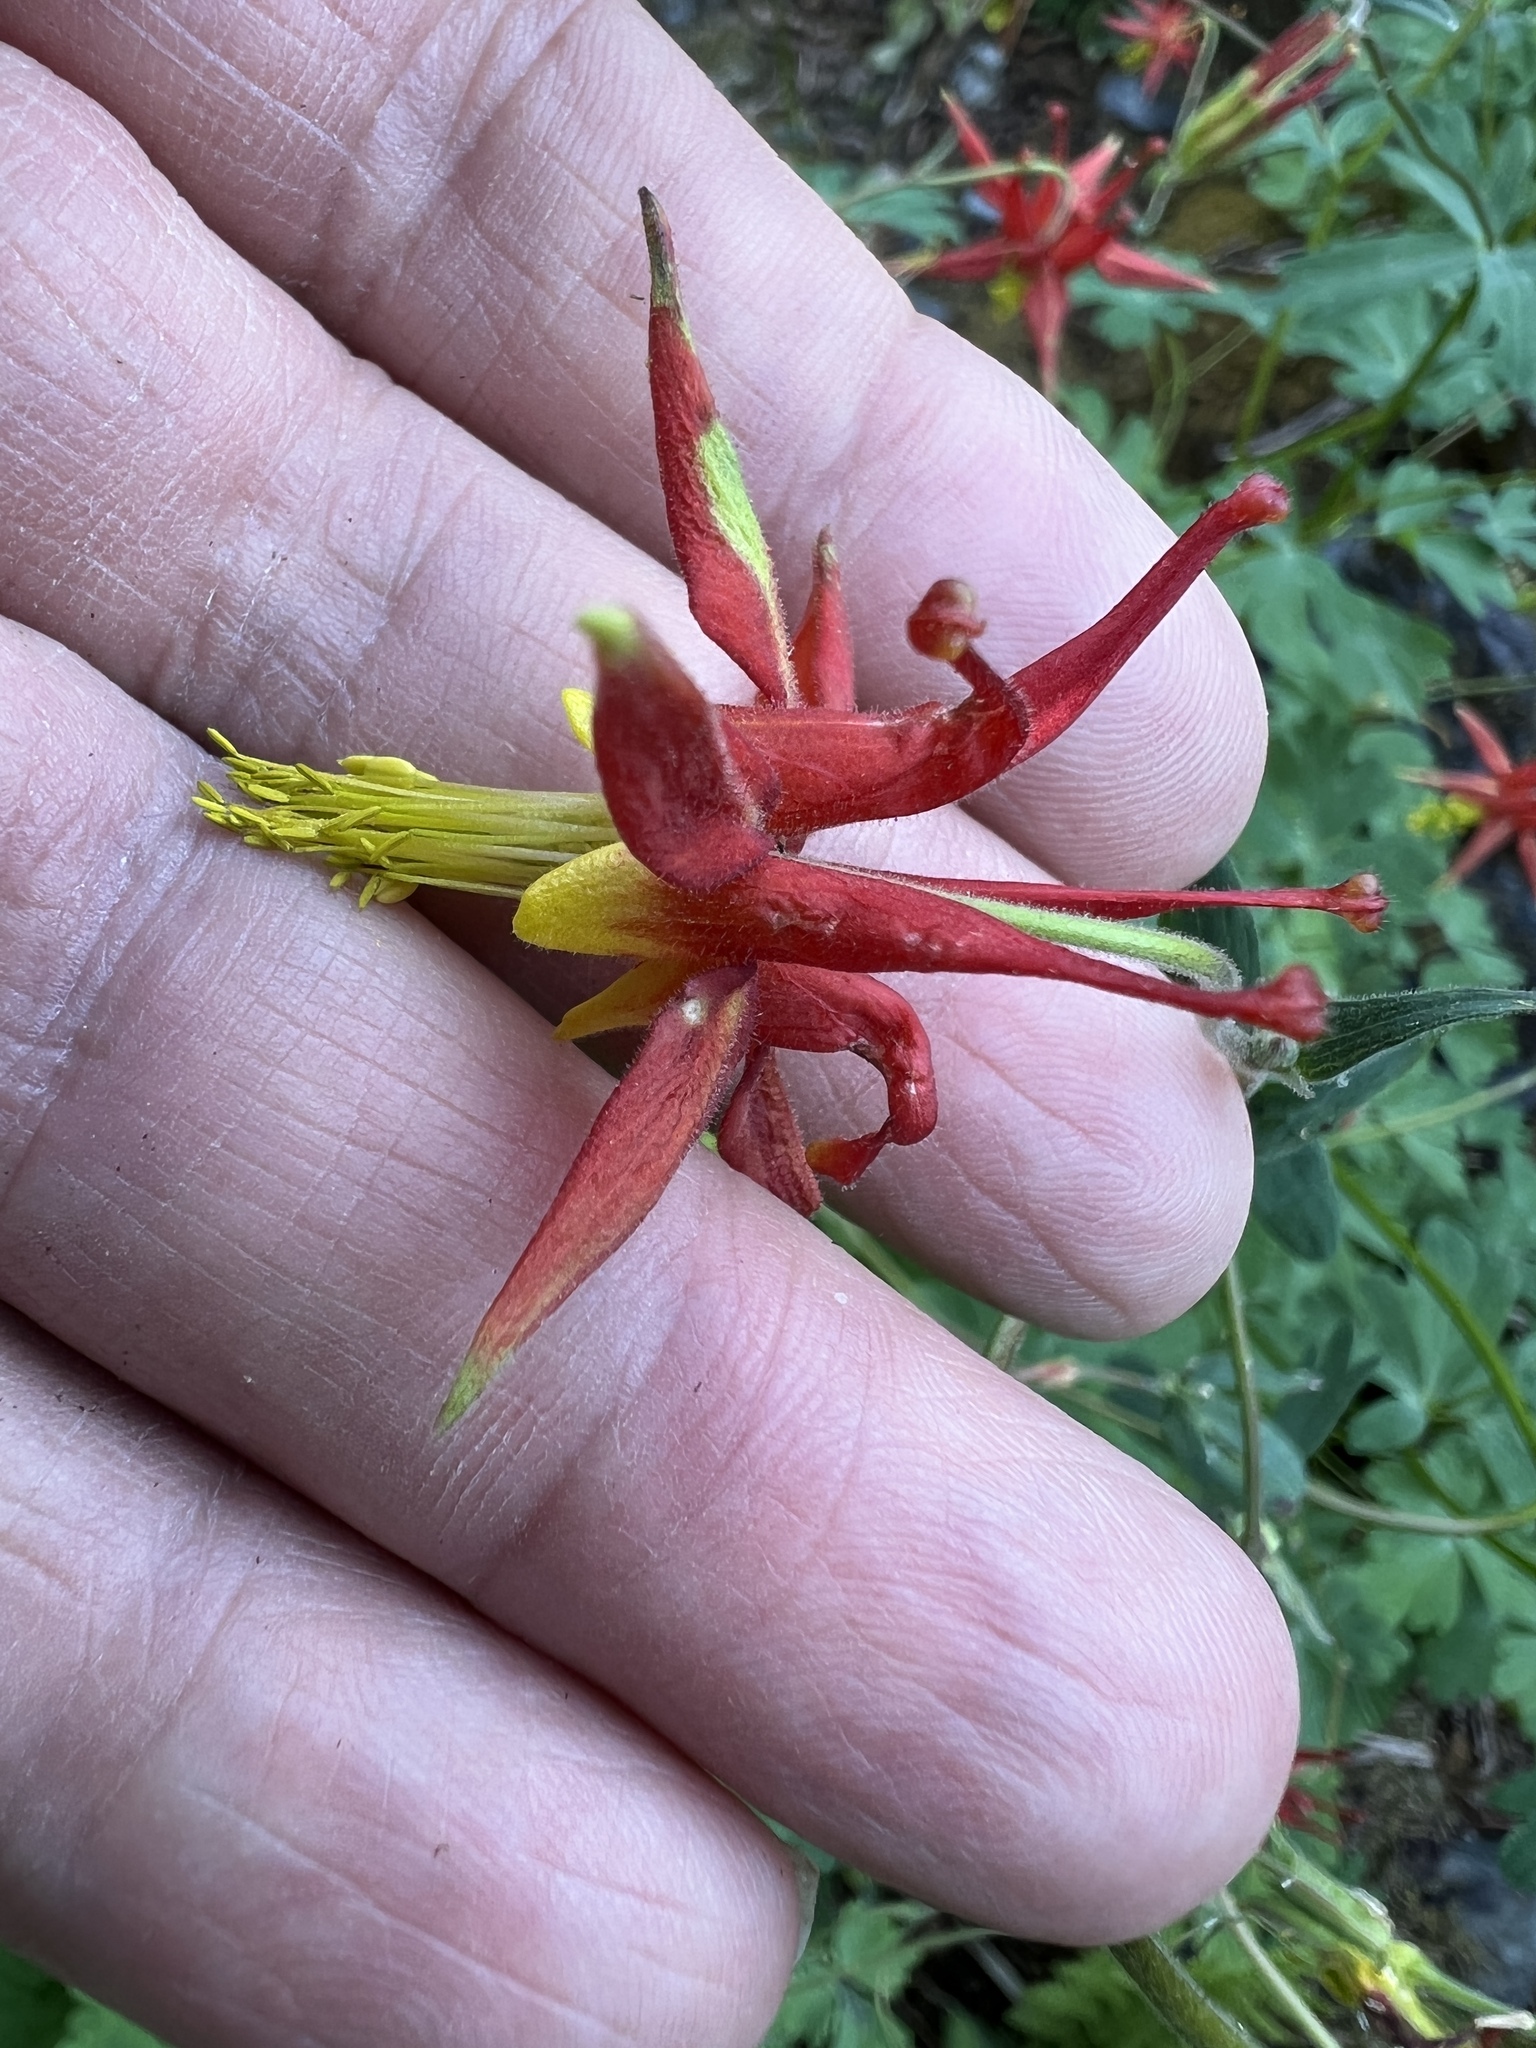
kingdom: Plantae
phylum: Tracheophyta
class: Magnoliopsida
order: Ranunculales
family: Ranunculaceae
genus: Aquilegia
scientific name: Aquilegia formosa
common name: Sitka columbine
